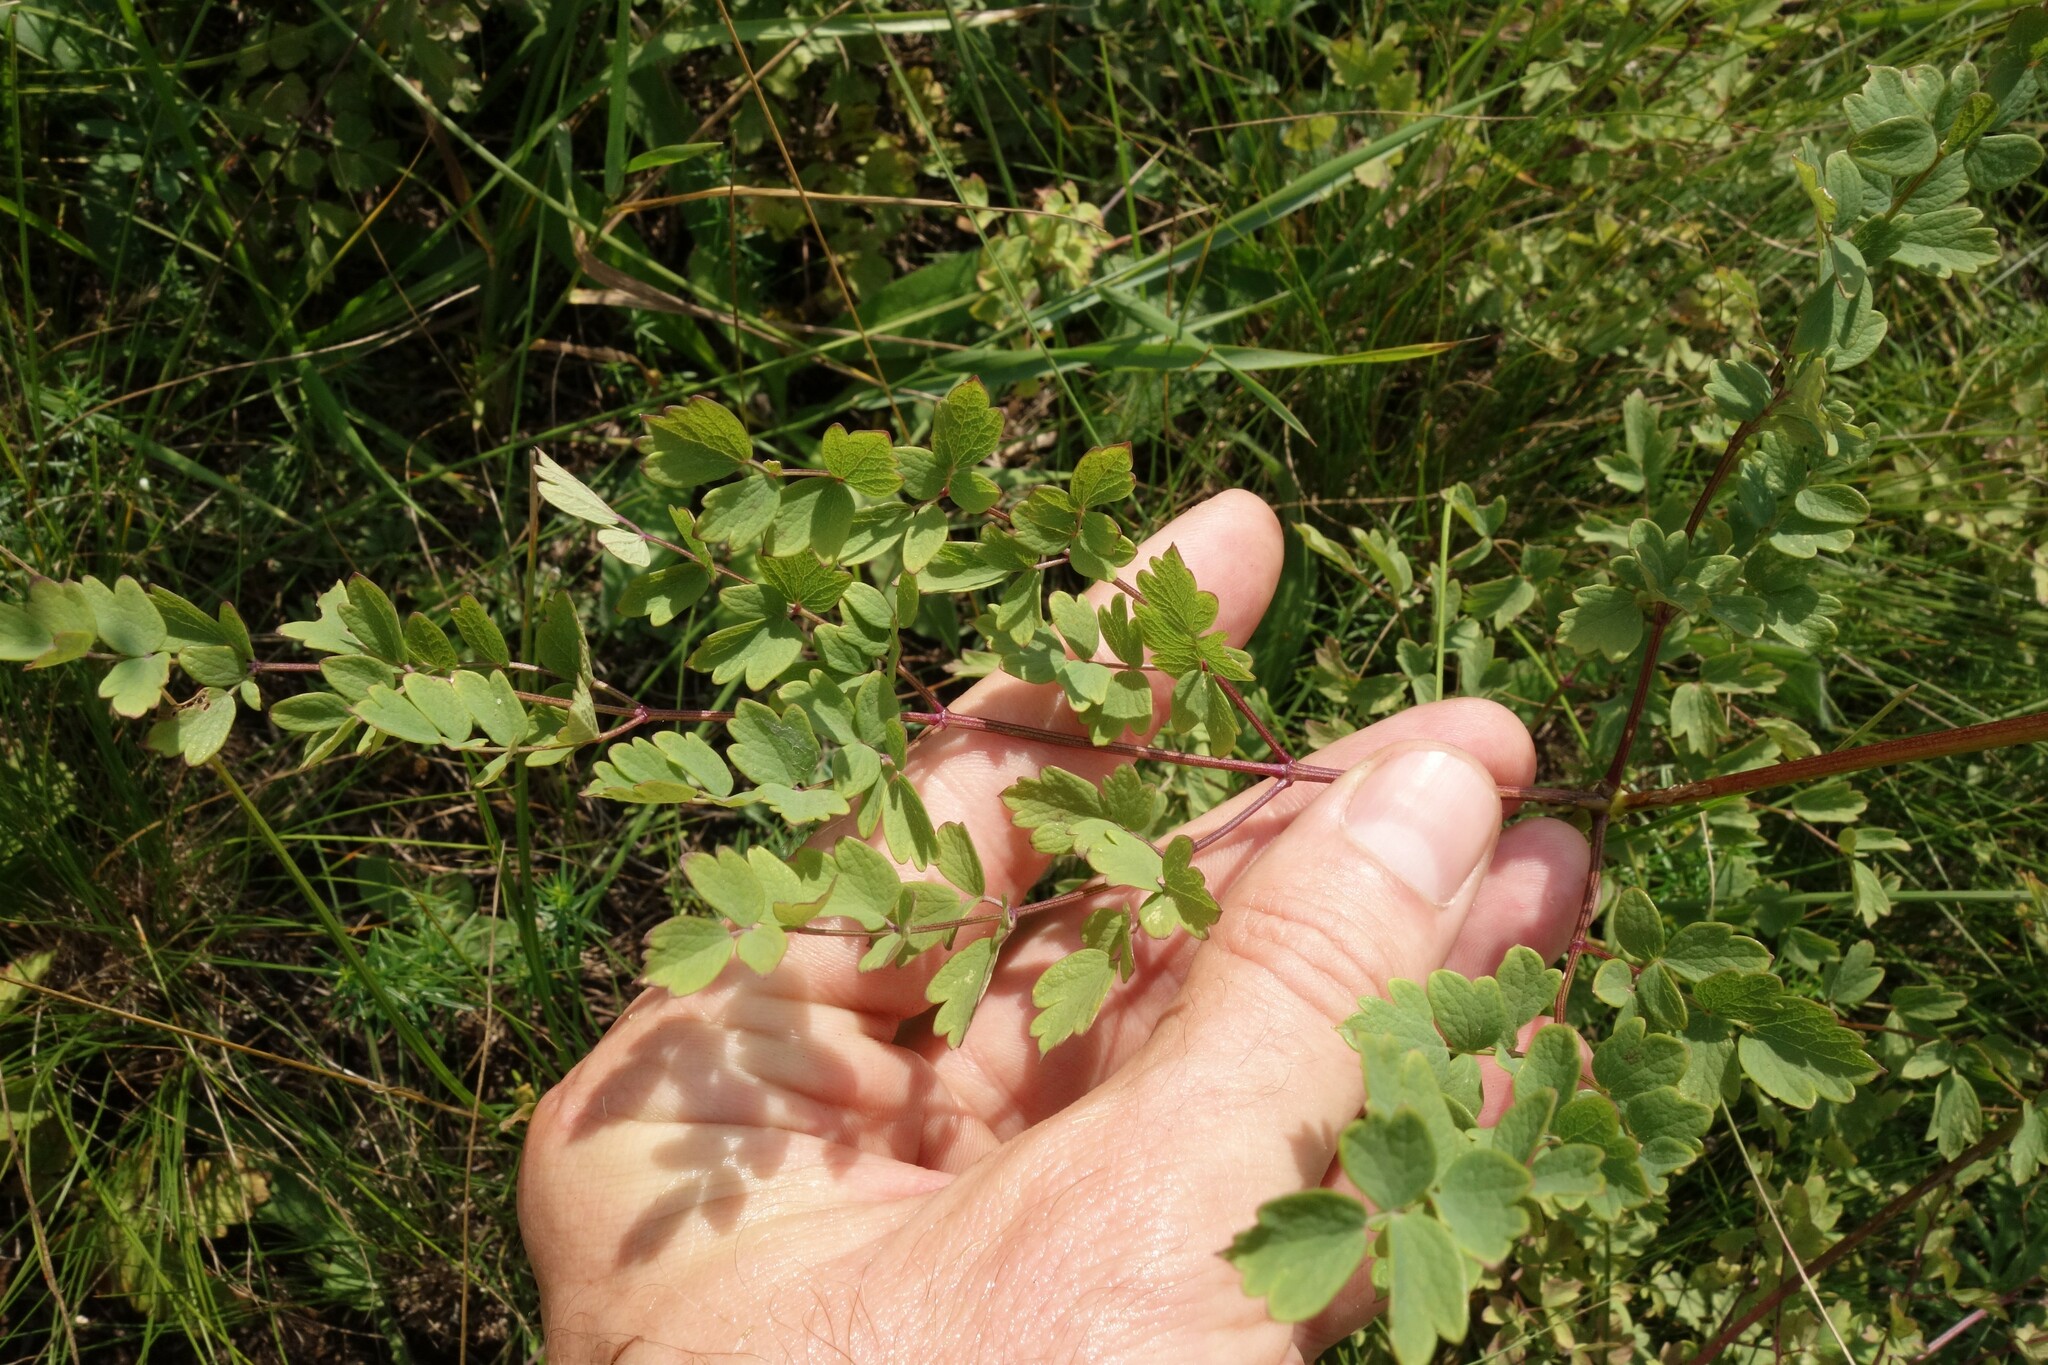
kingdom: Plantae
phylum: Tracheophyta
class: Magnoliopsida
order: Ranunculales
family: Ranunculaceae
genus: Thalictrum
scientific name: Thalictrum minus
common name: Lesser meadow-rue
